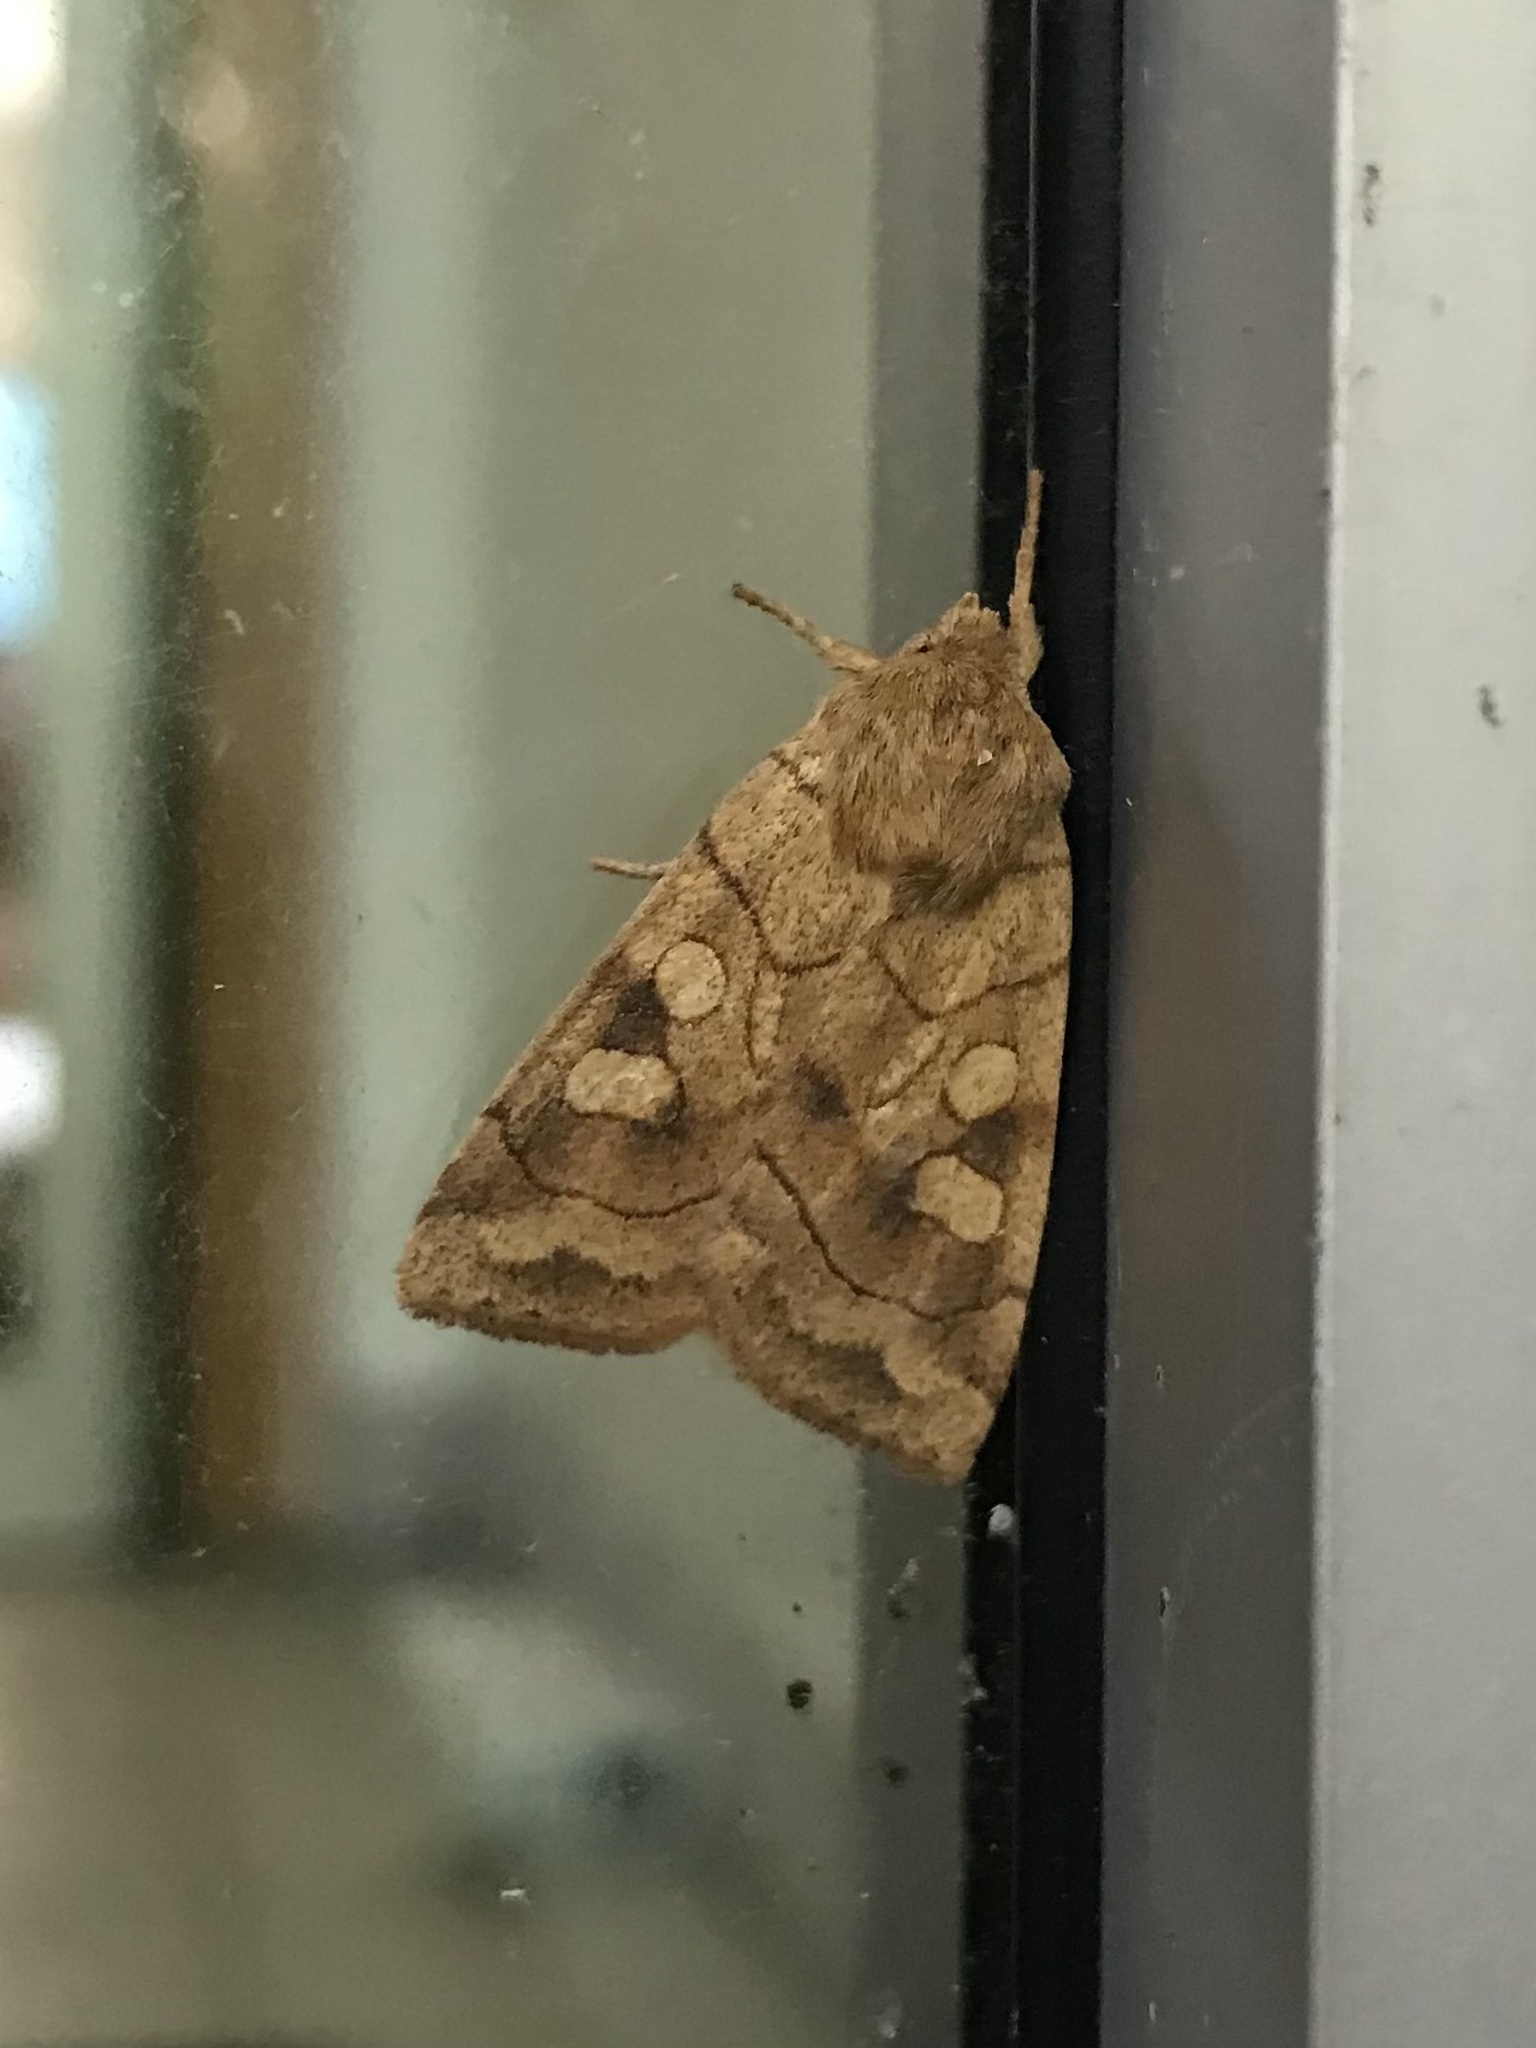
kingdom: Animalia
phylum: Arthropoda
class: Insecta
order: Lepidoptera
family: Noctuidae
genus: Enargia
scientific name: Enargia decolor
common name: Aspen twoleaf tier moth
